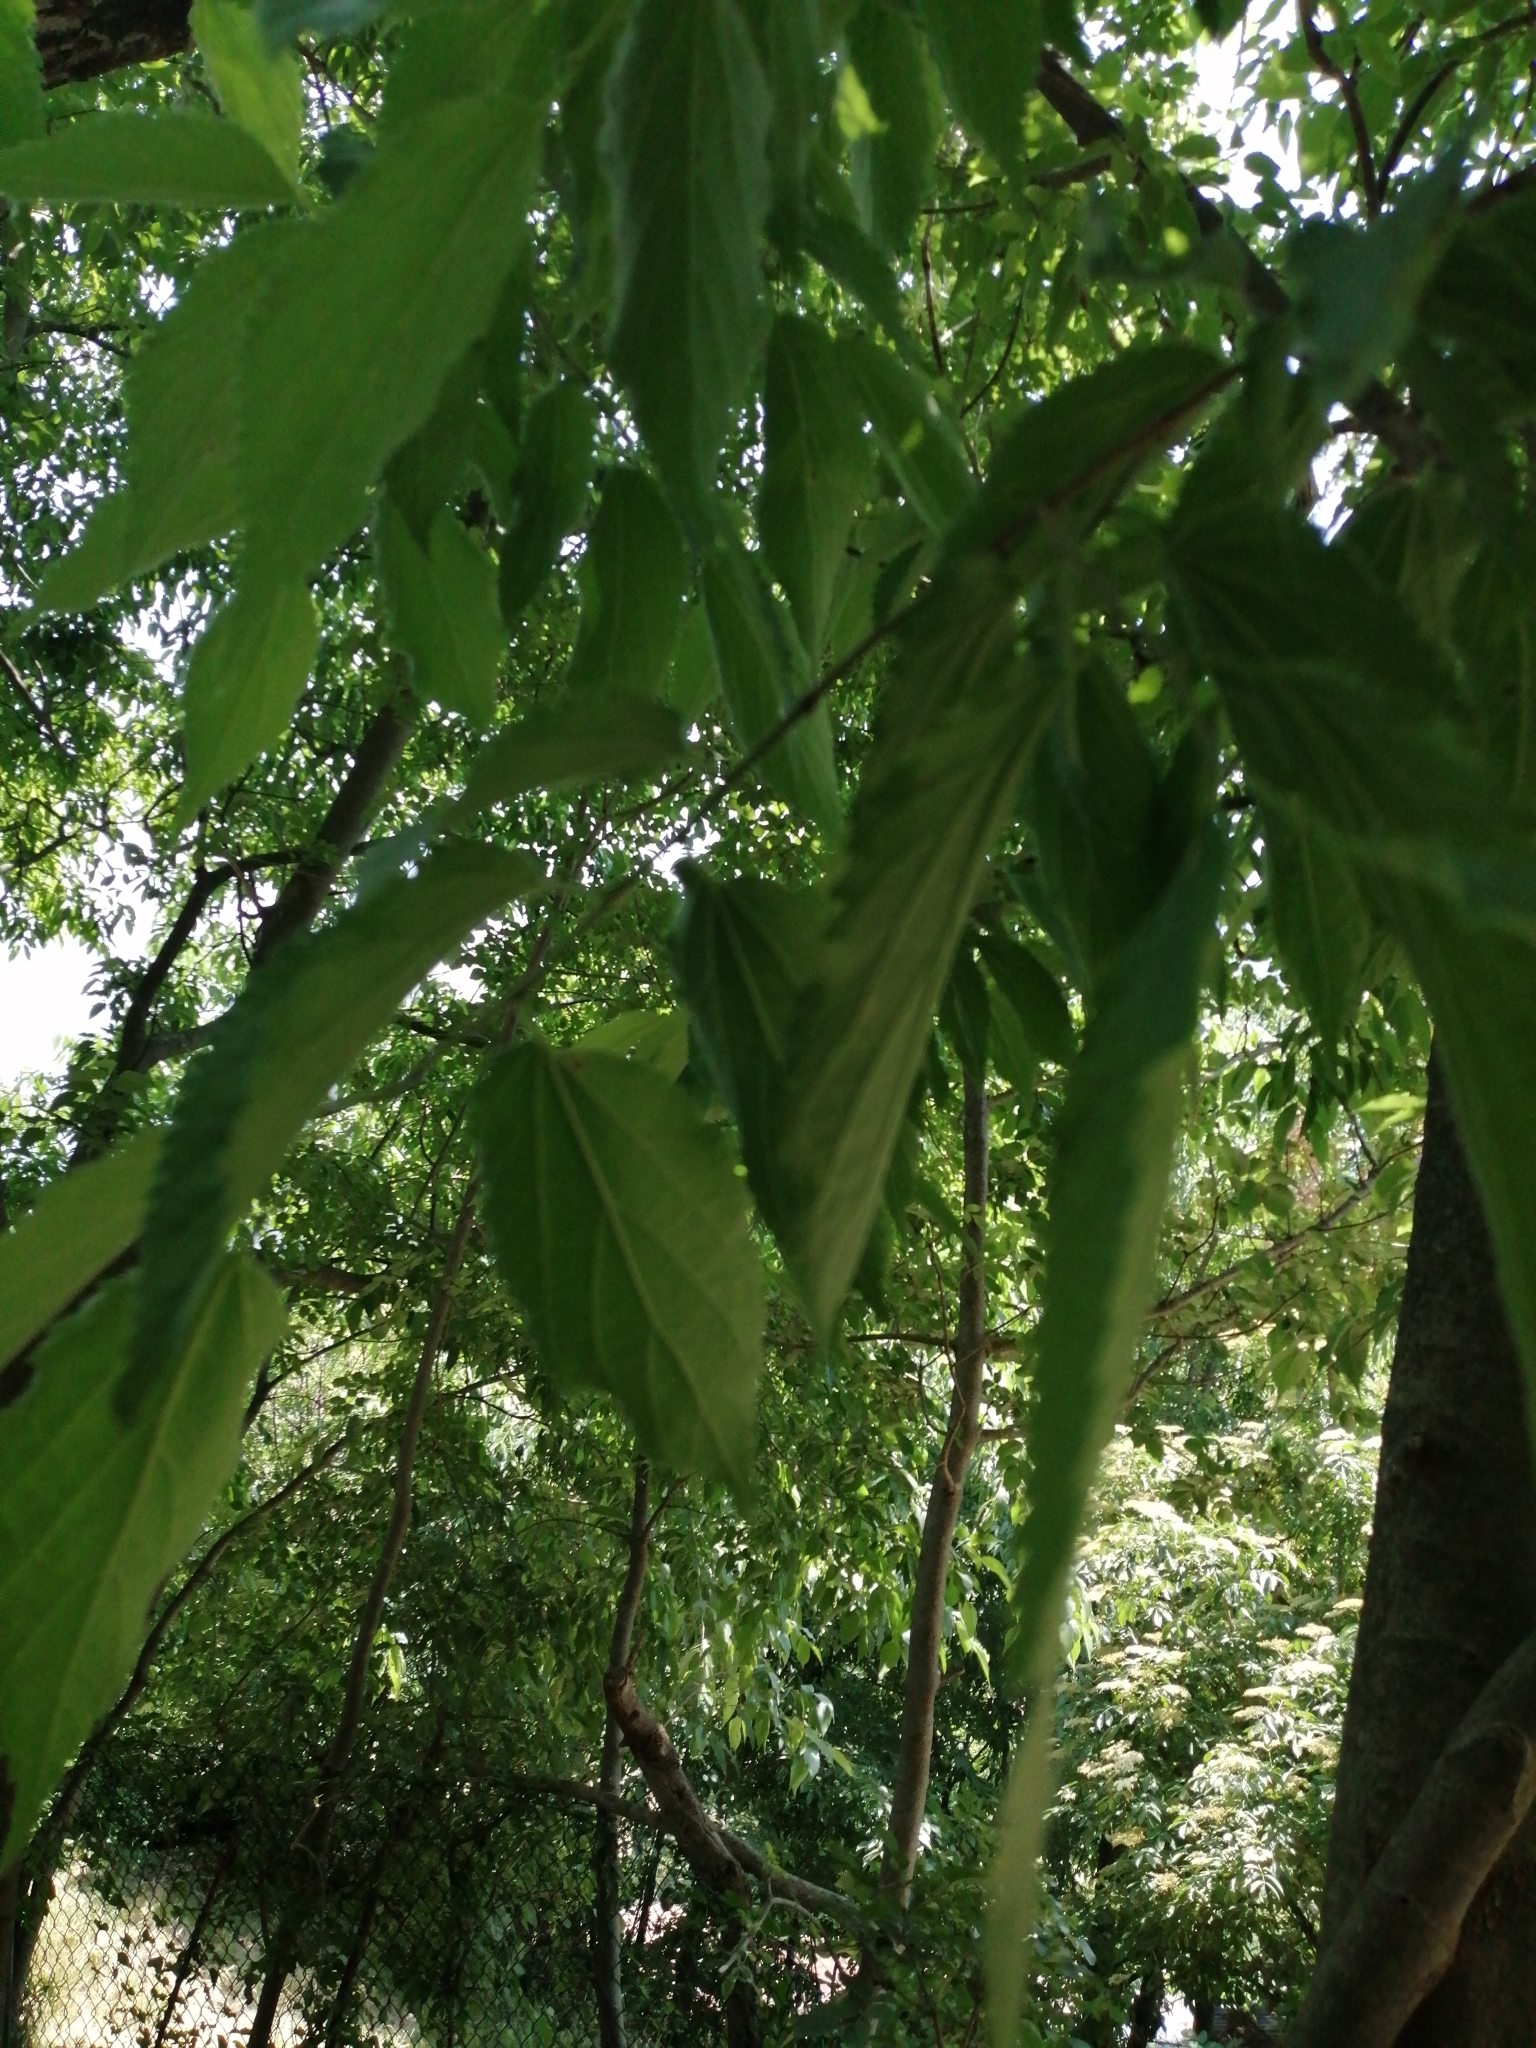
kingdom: Plantae
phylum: Tracheophyta
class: Magnoliopsida
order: Rosales
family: Cannabaceae
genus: Celtis
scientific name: Celtis australis
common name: European hackberry
